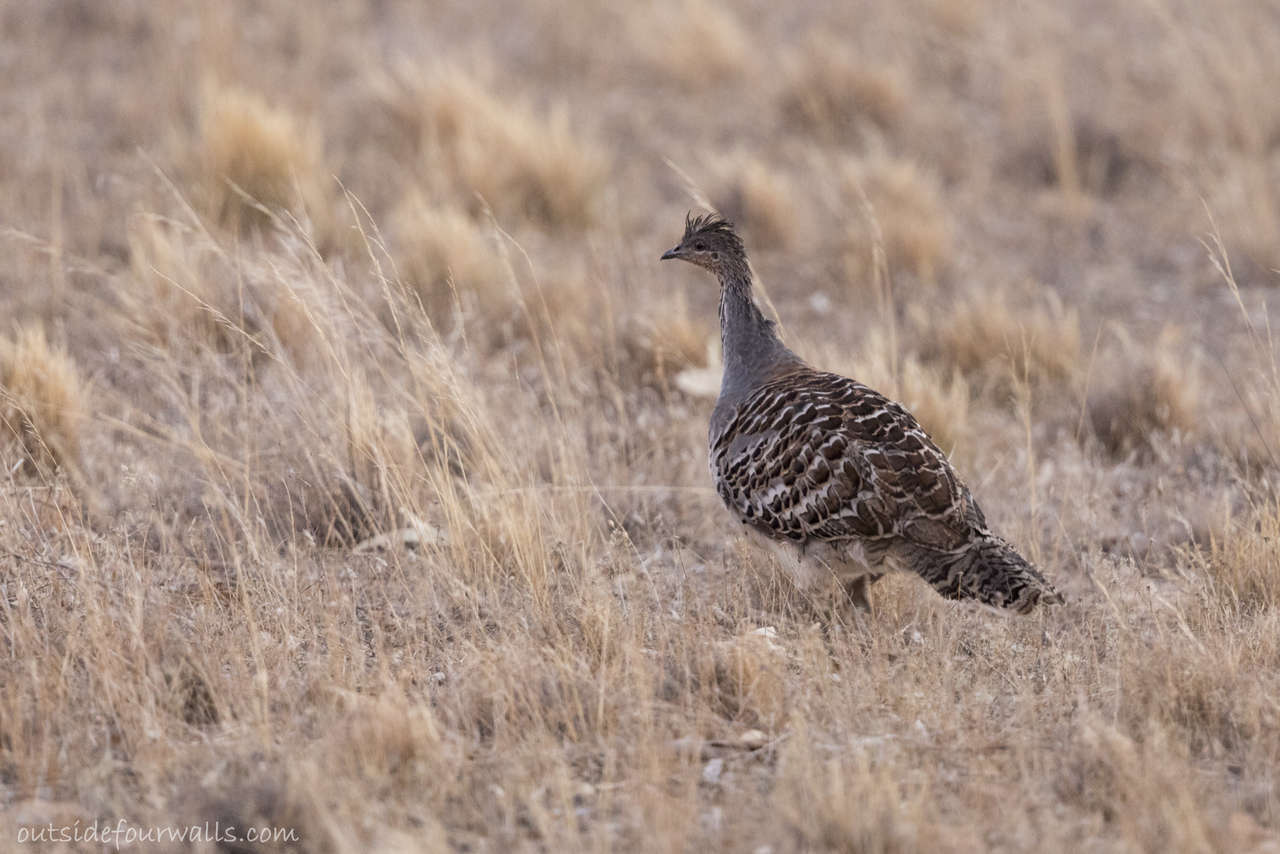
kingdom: Animalia
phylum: Chordata
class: Aves
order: Galliformes
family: Megapodiidae
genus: Leipoa
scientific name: Leipoa ocellata
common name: Malleefowl
